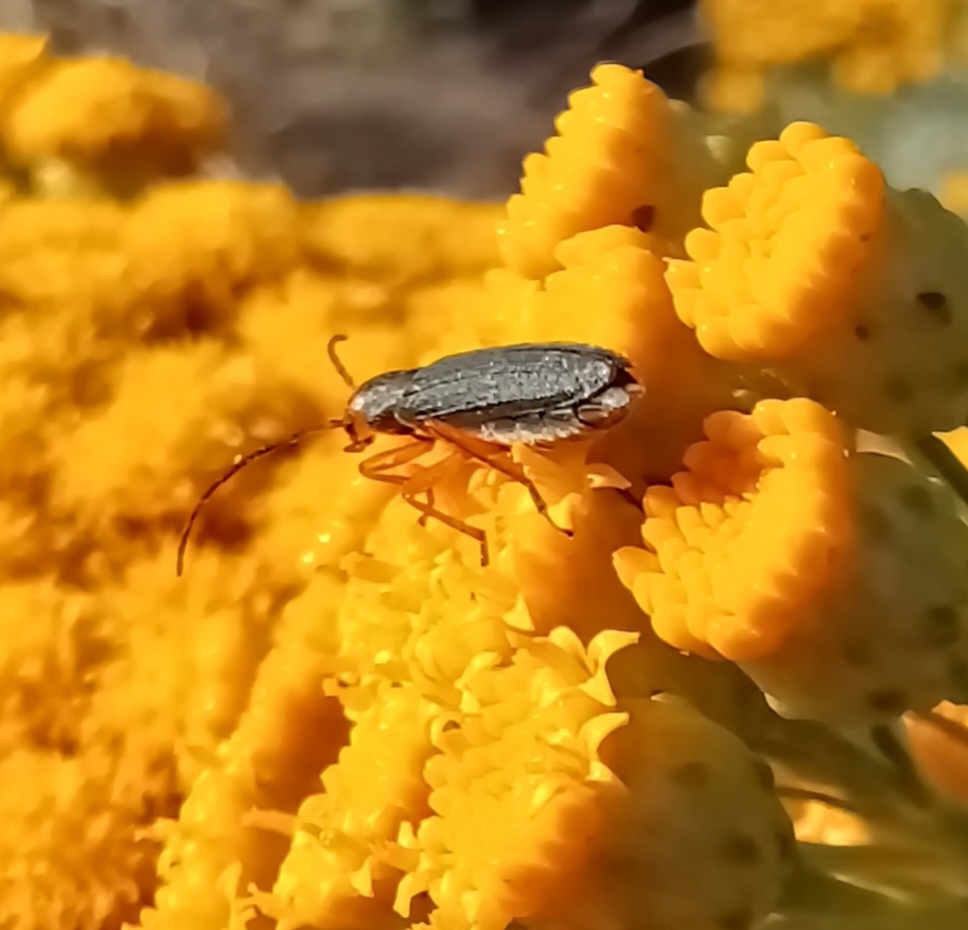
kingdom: Animalia
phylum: Arthropoda
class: Insecta
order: Coleoptera
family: Oedemeridae
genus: Melananthia
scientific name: Melananthia
